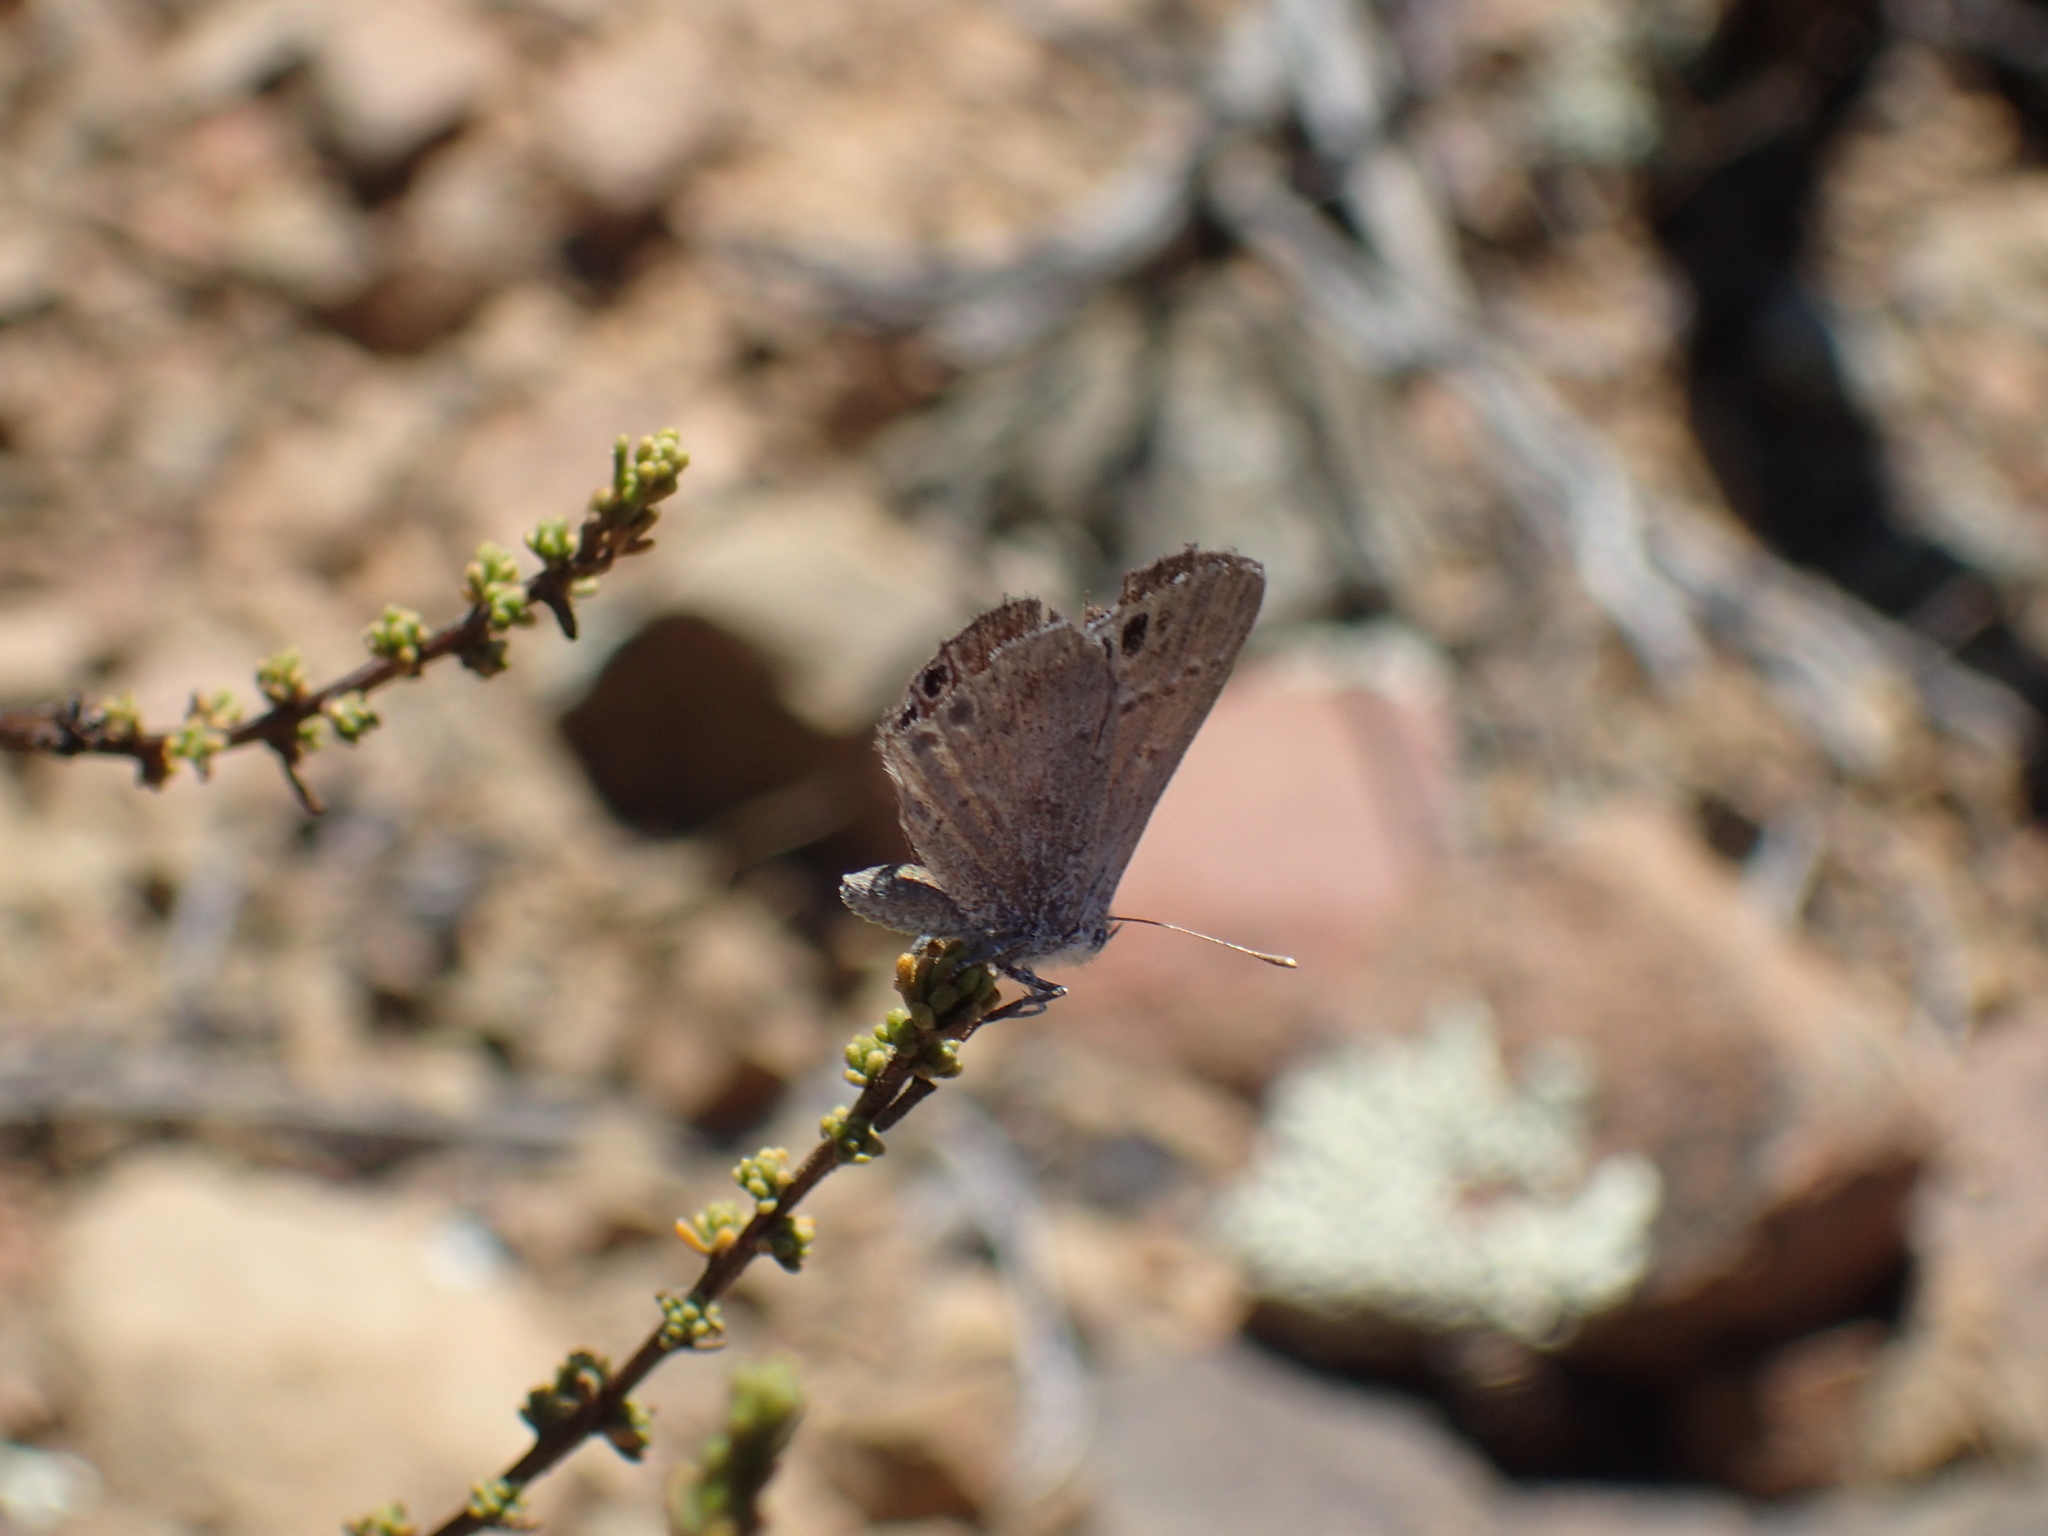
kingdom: Animalia
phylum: Arthropoda
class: Insecta
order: Lepidoptera
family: Lycaenidae
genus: Leptomyrina
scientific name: Leptomyrina lara
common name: Cape black-eye
